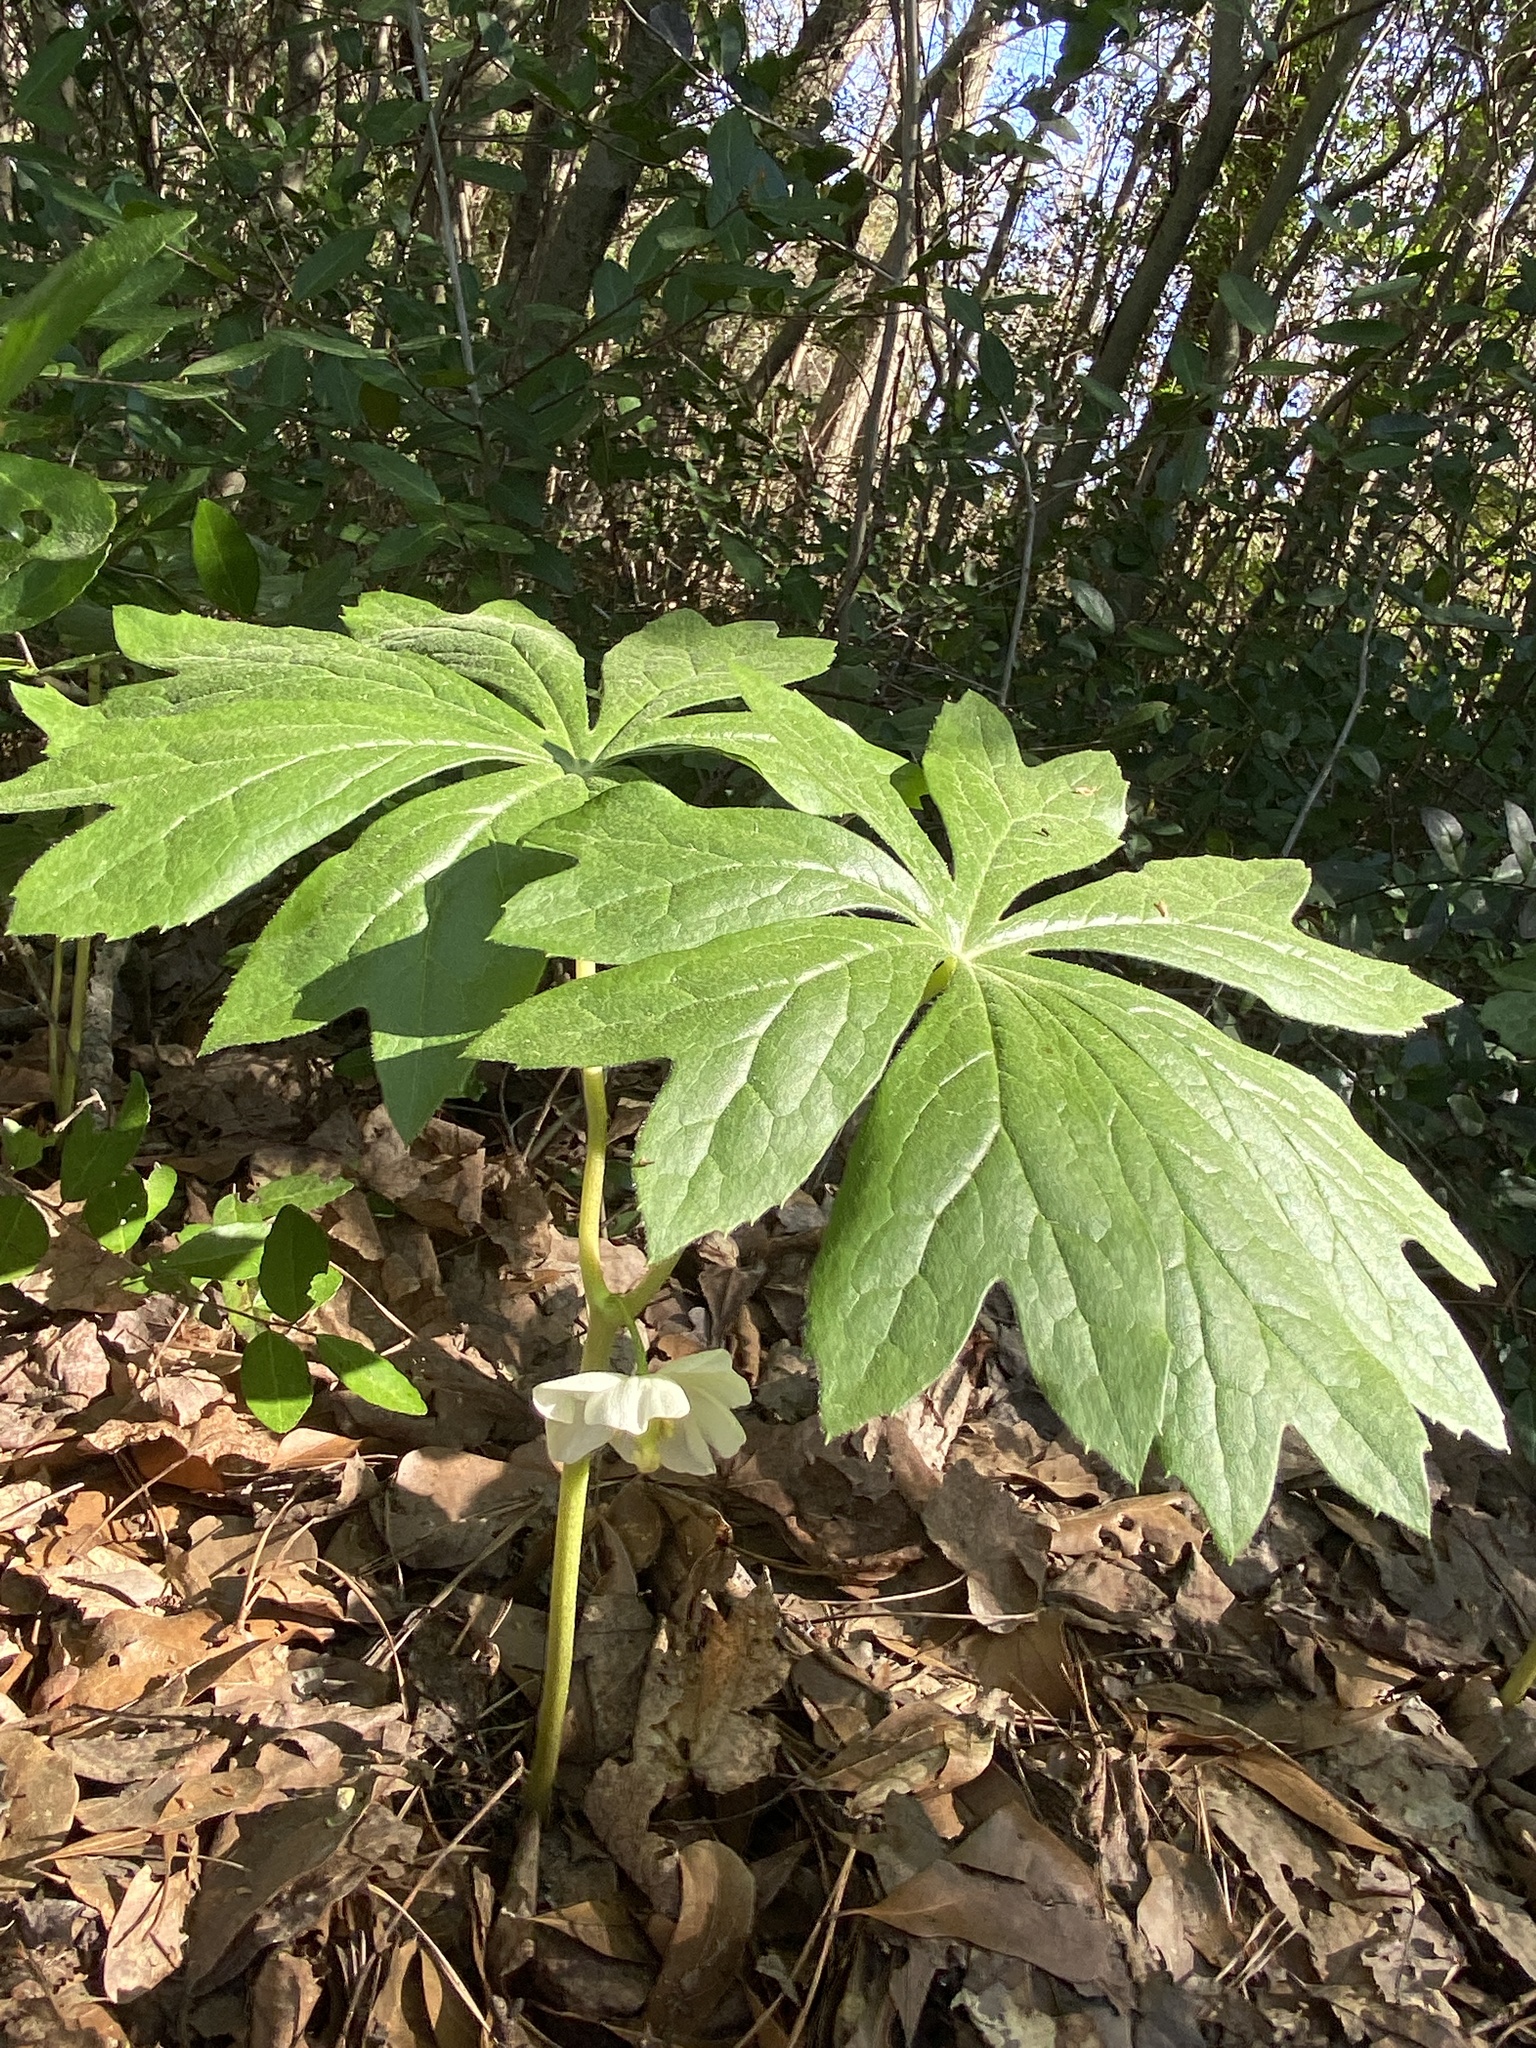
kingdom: Plantae
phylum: Tracheophyta
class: Magnoliopsida
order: Ranunculales
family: Berberidaceae
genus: Podophyllum
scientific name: Podophyllum peltatum
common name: Wild mandrake
